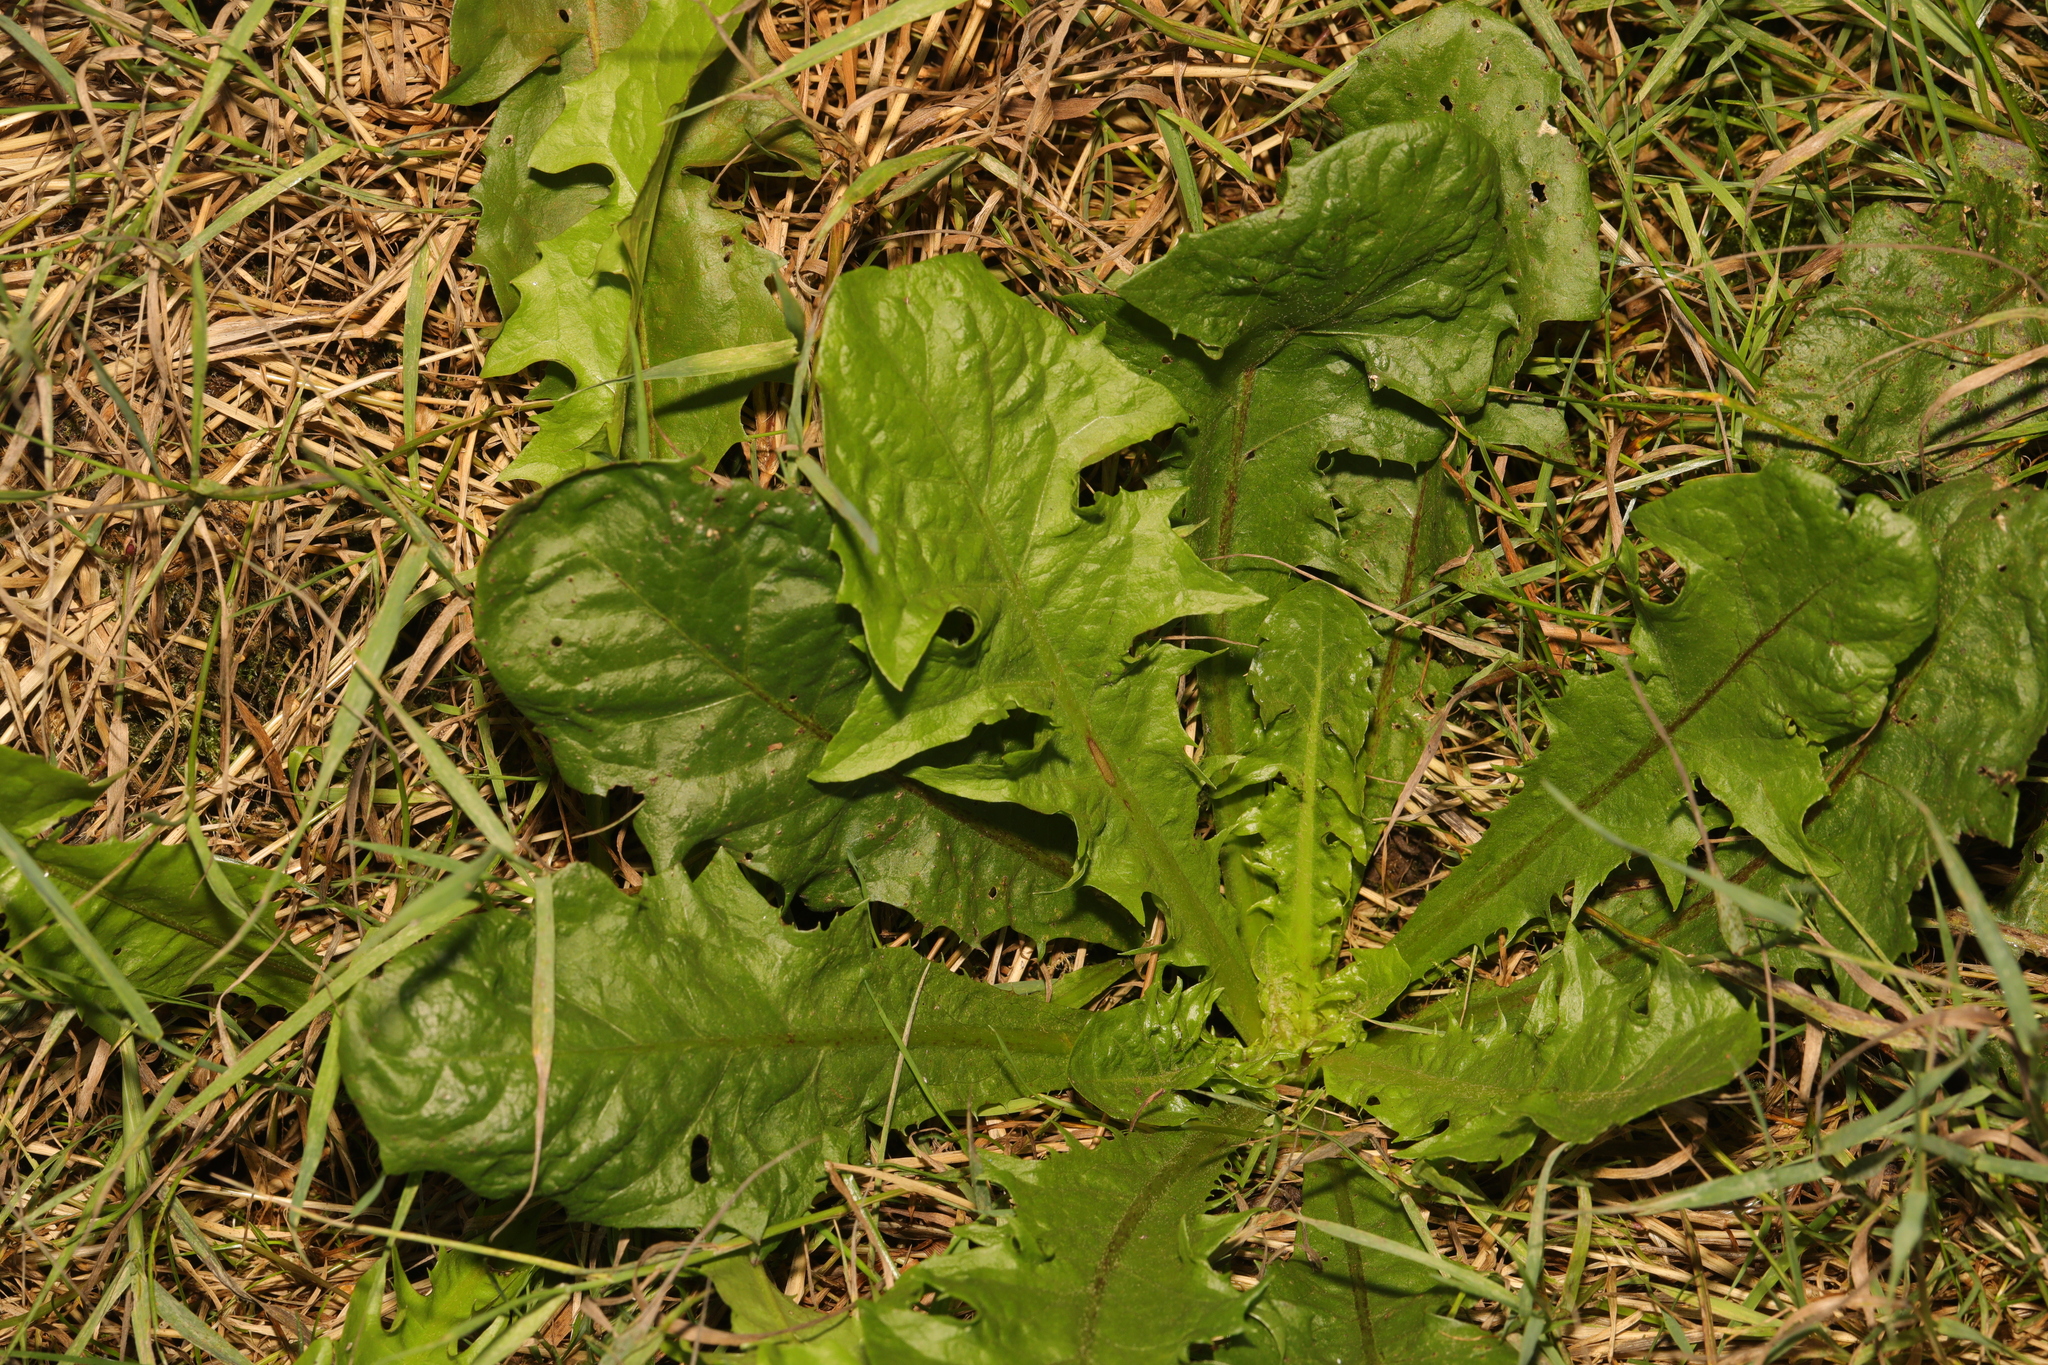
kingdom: Plantae
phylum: Tracheophyta
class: Magnoliopsida
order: Asterales
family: Asteraceae
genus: Taraxacum
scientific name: Taraxacum officinale
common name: Common dandelion
